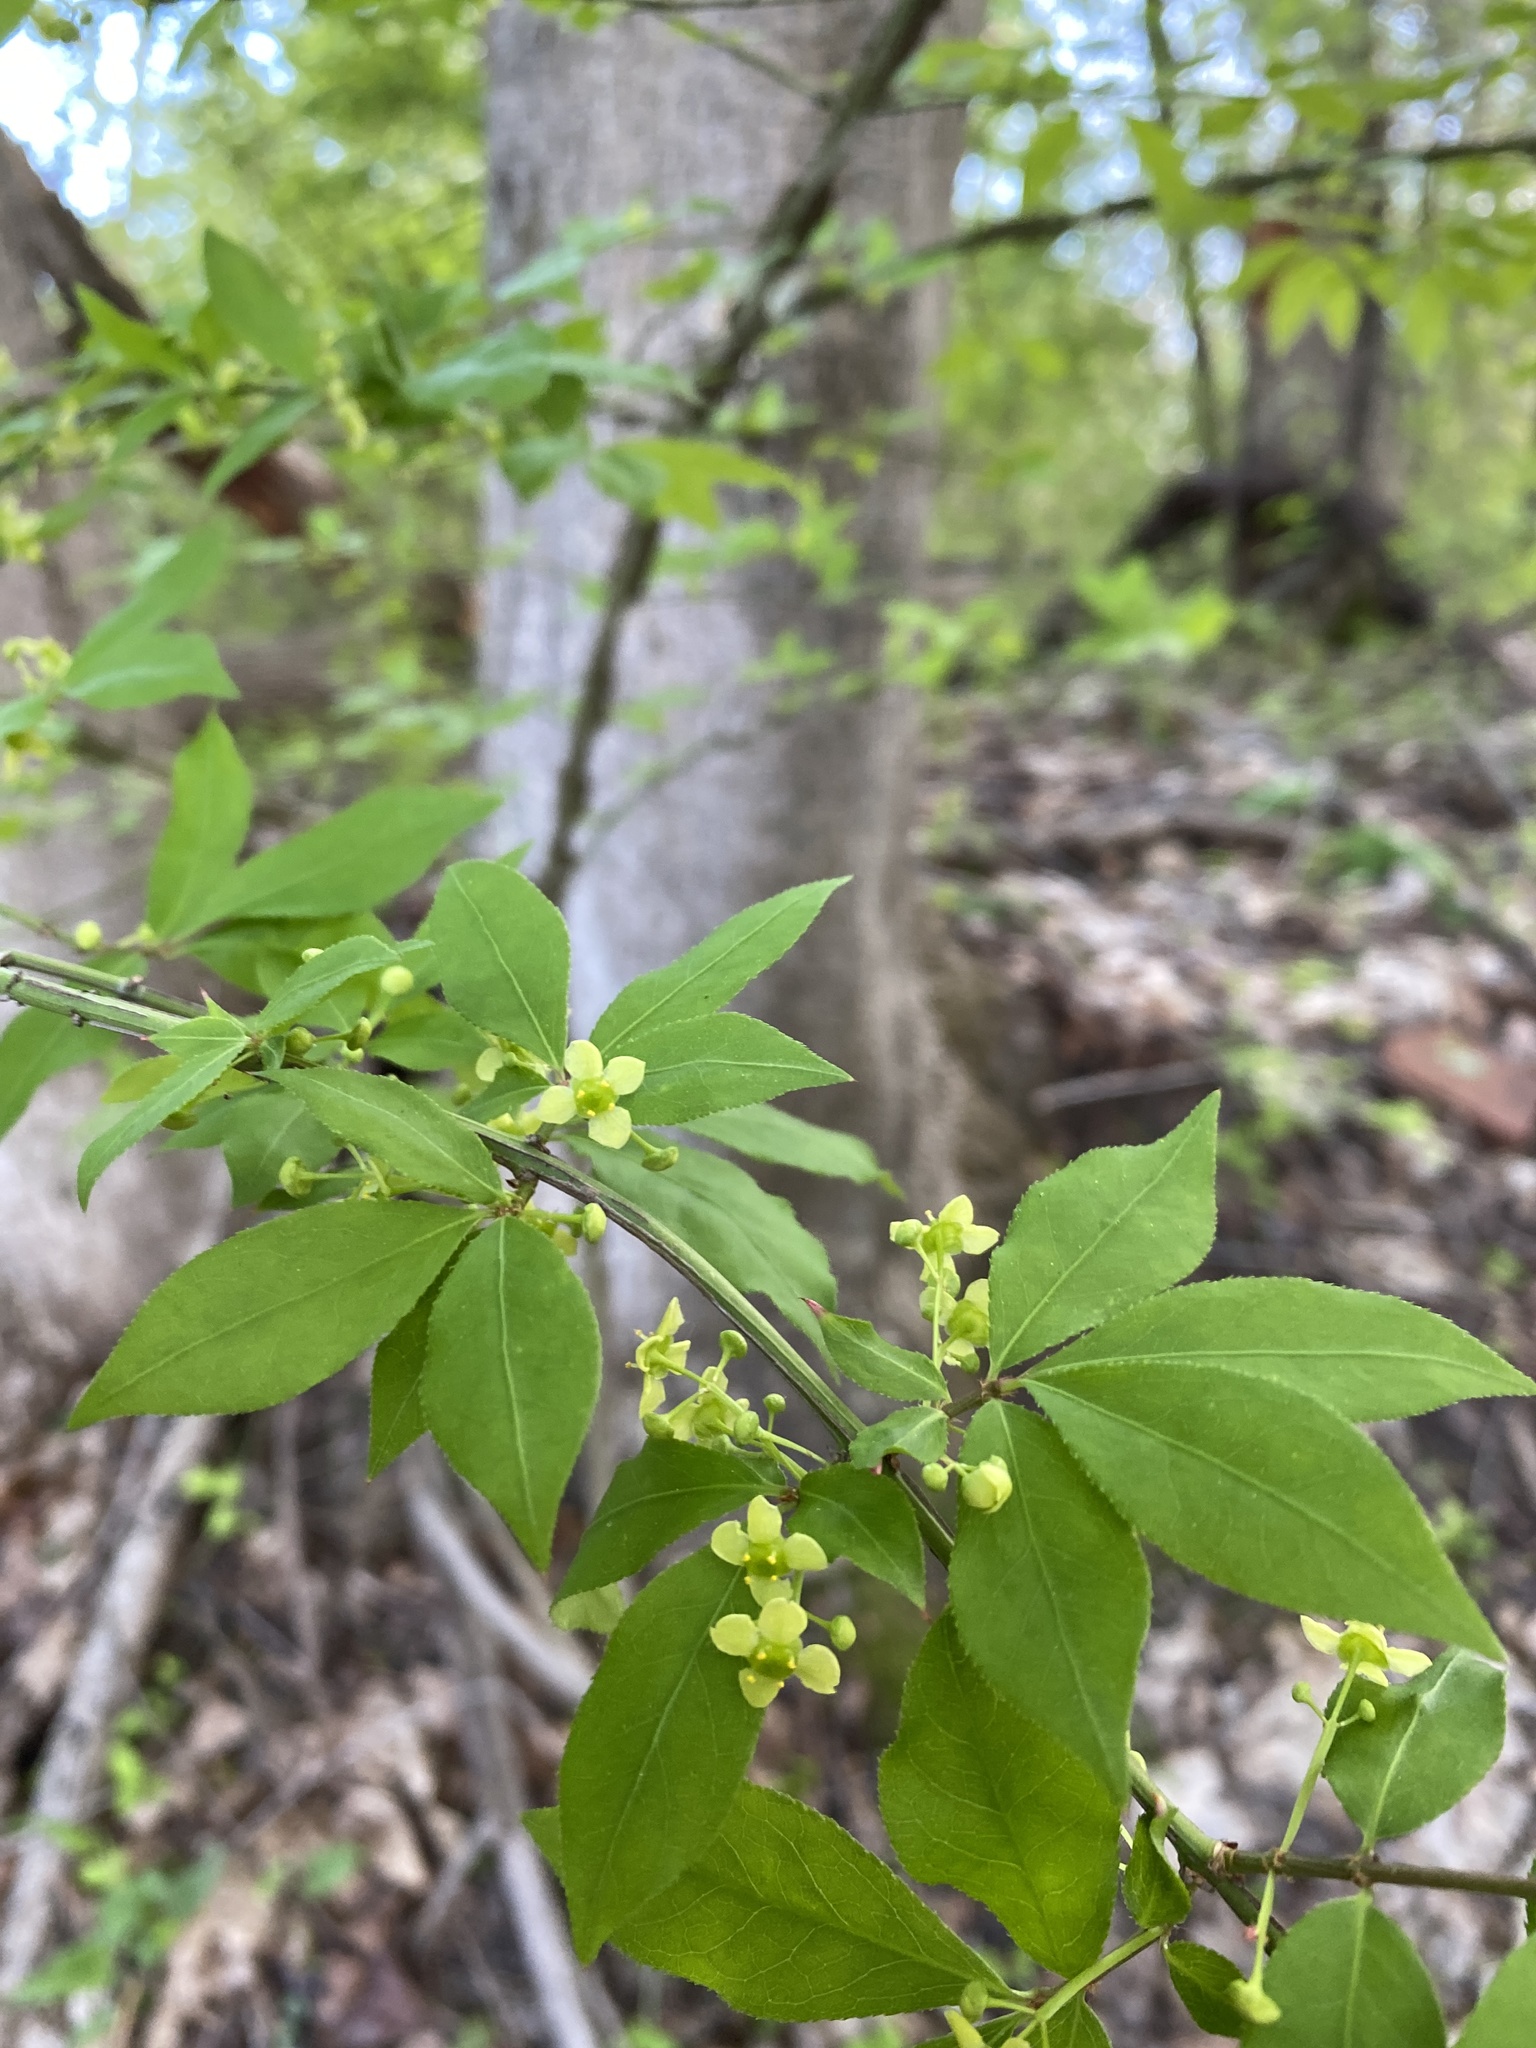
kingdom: Plantae
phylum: Tracheophyta
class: Magnoliopsida
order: Celastrales
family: Celastraceae
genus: Euonymus
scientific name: Euonymus alatus
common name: Winged euonymus
